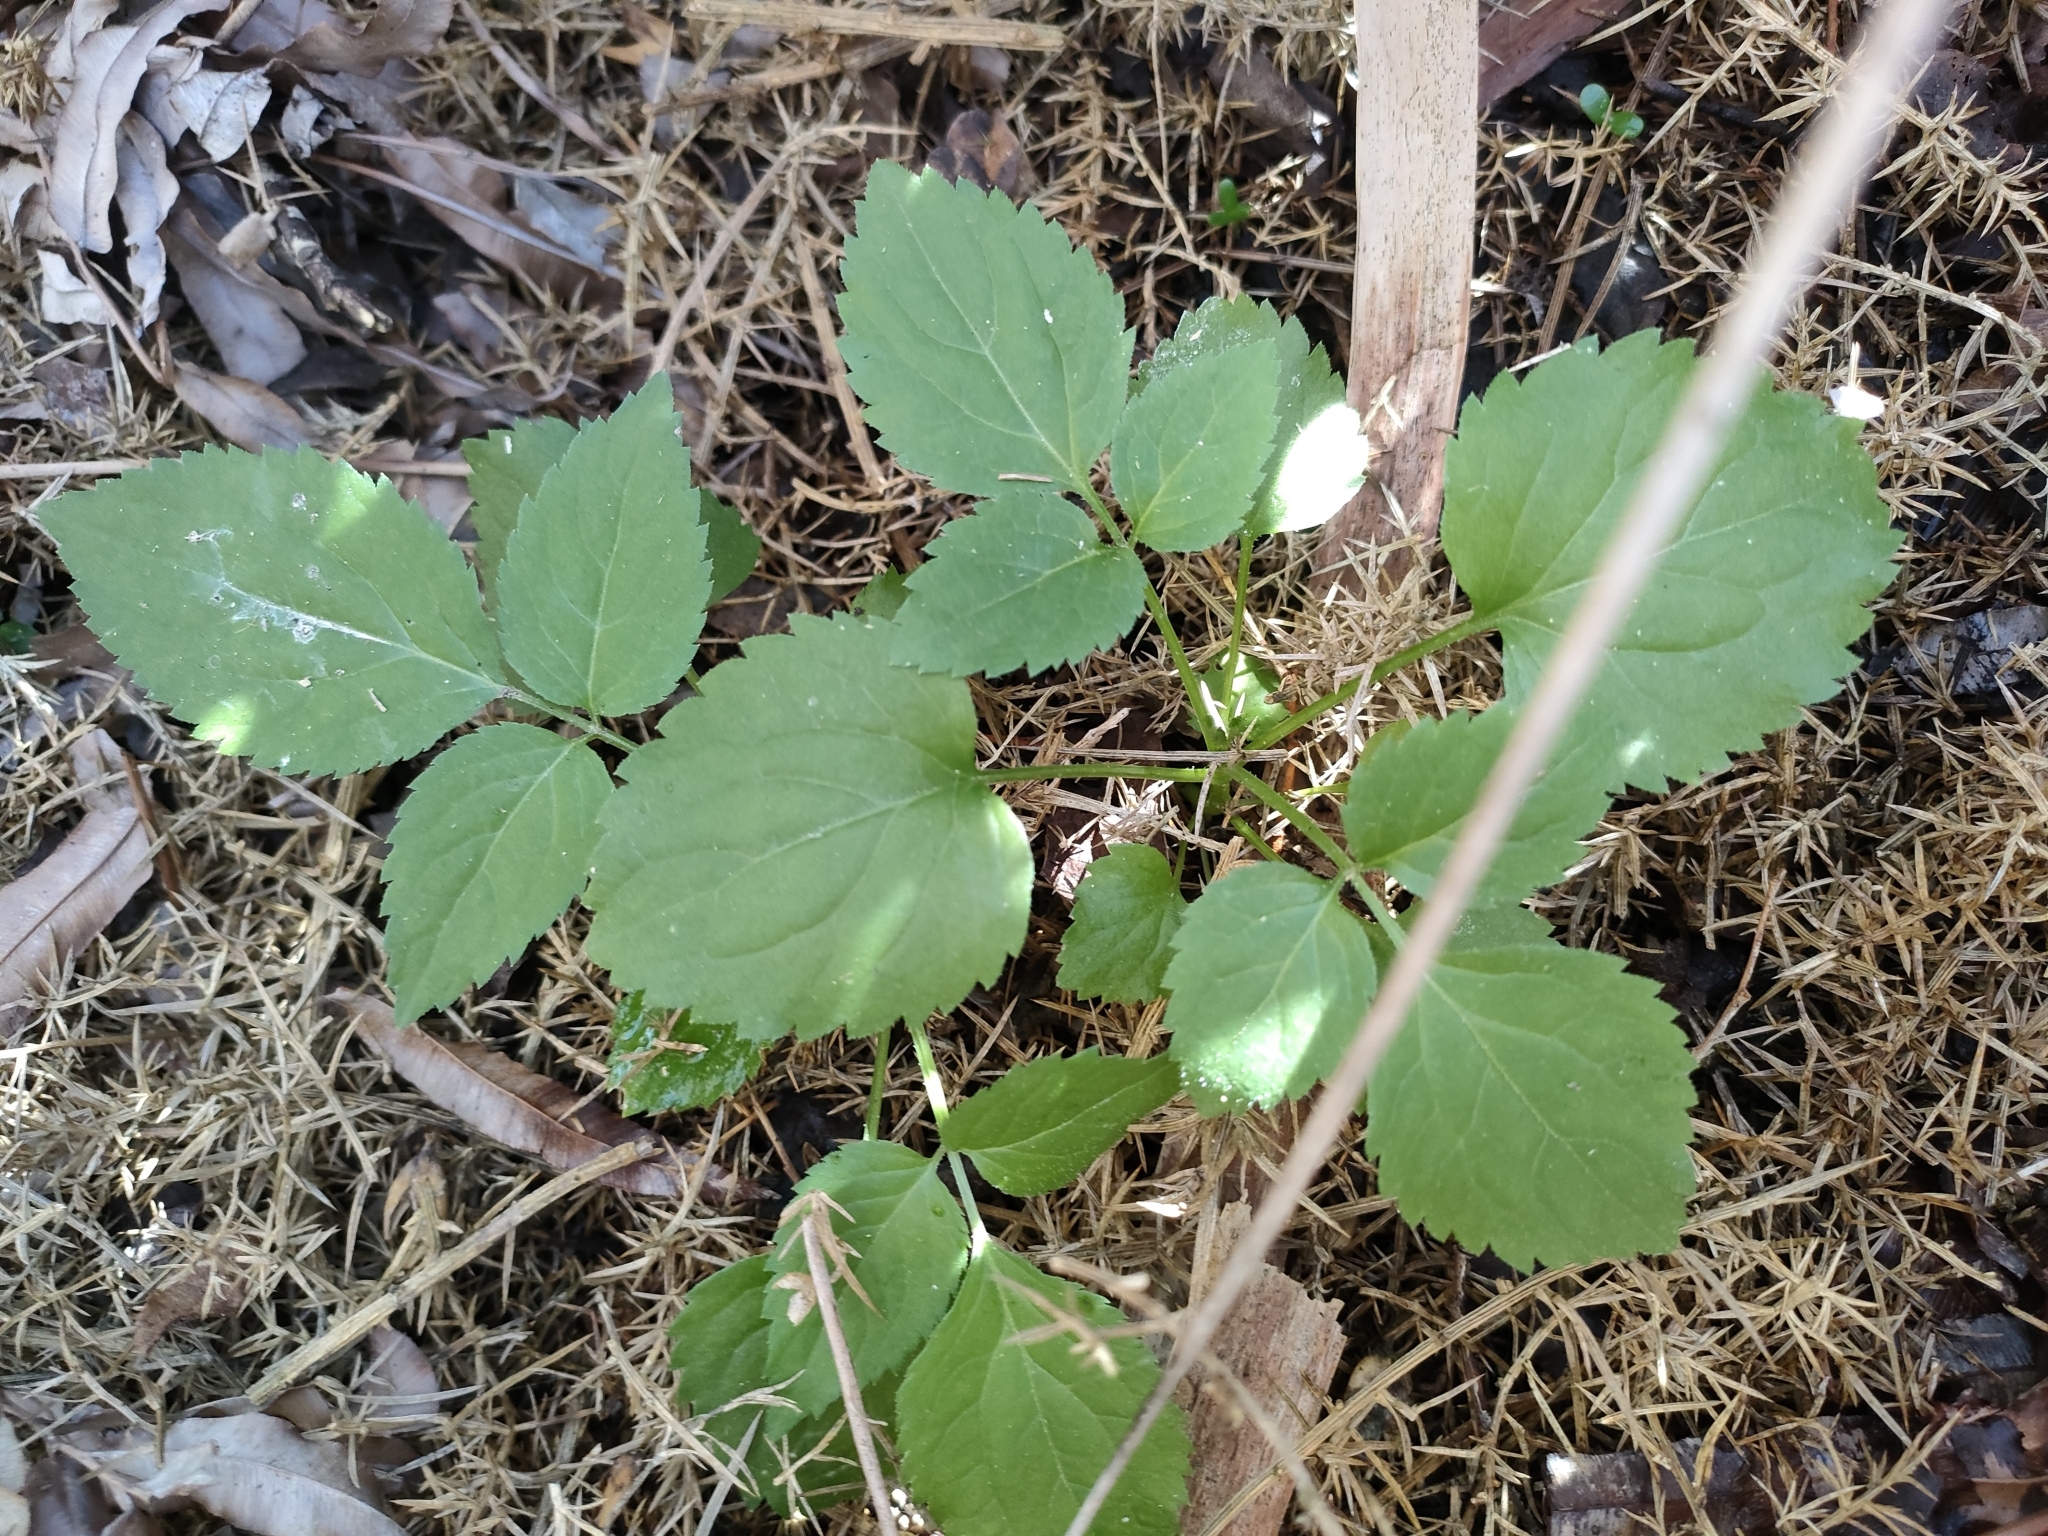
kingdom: Plantae
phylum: Tracheophyta
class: Magnoliopsida
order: Dipsacales
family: Viburnaceae
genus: Sambucus
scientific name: Sambucus nigra
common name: Elder
